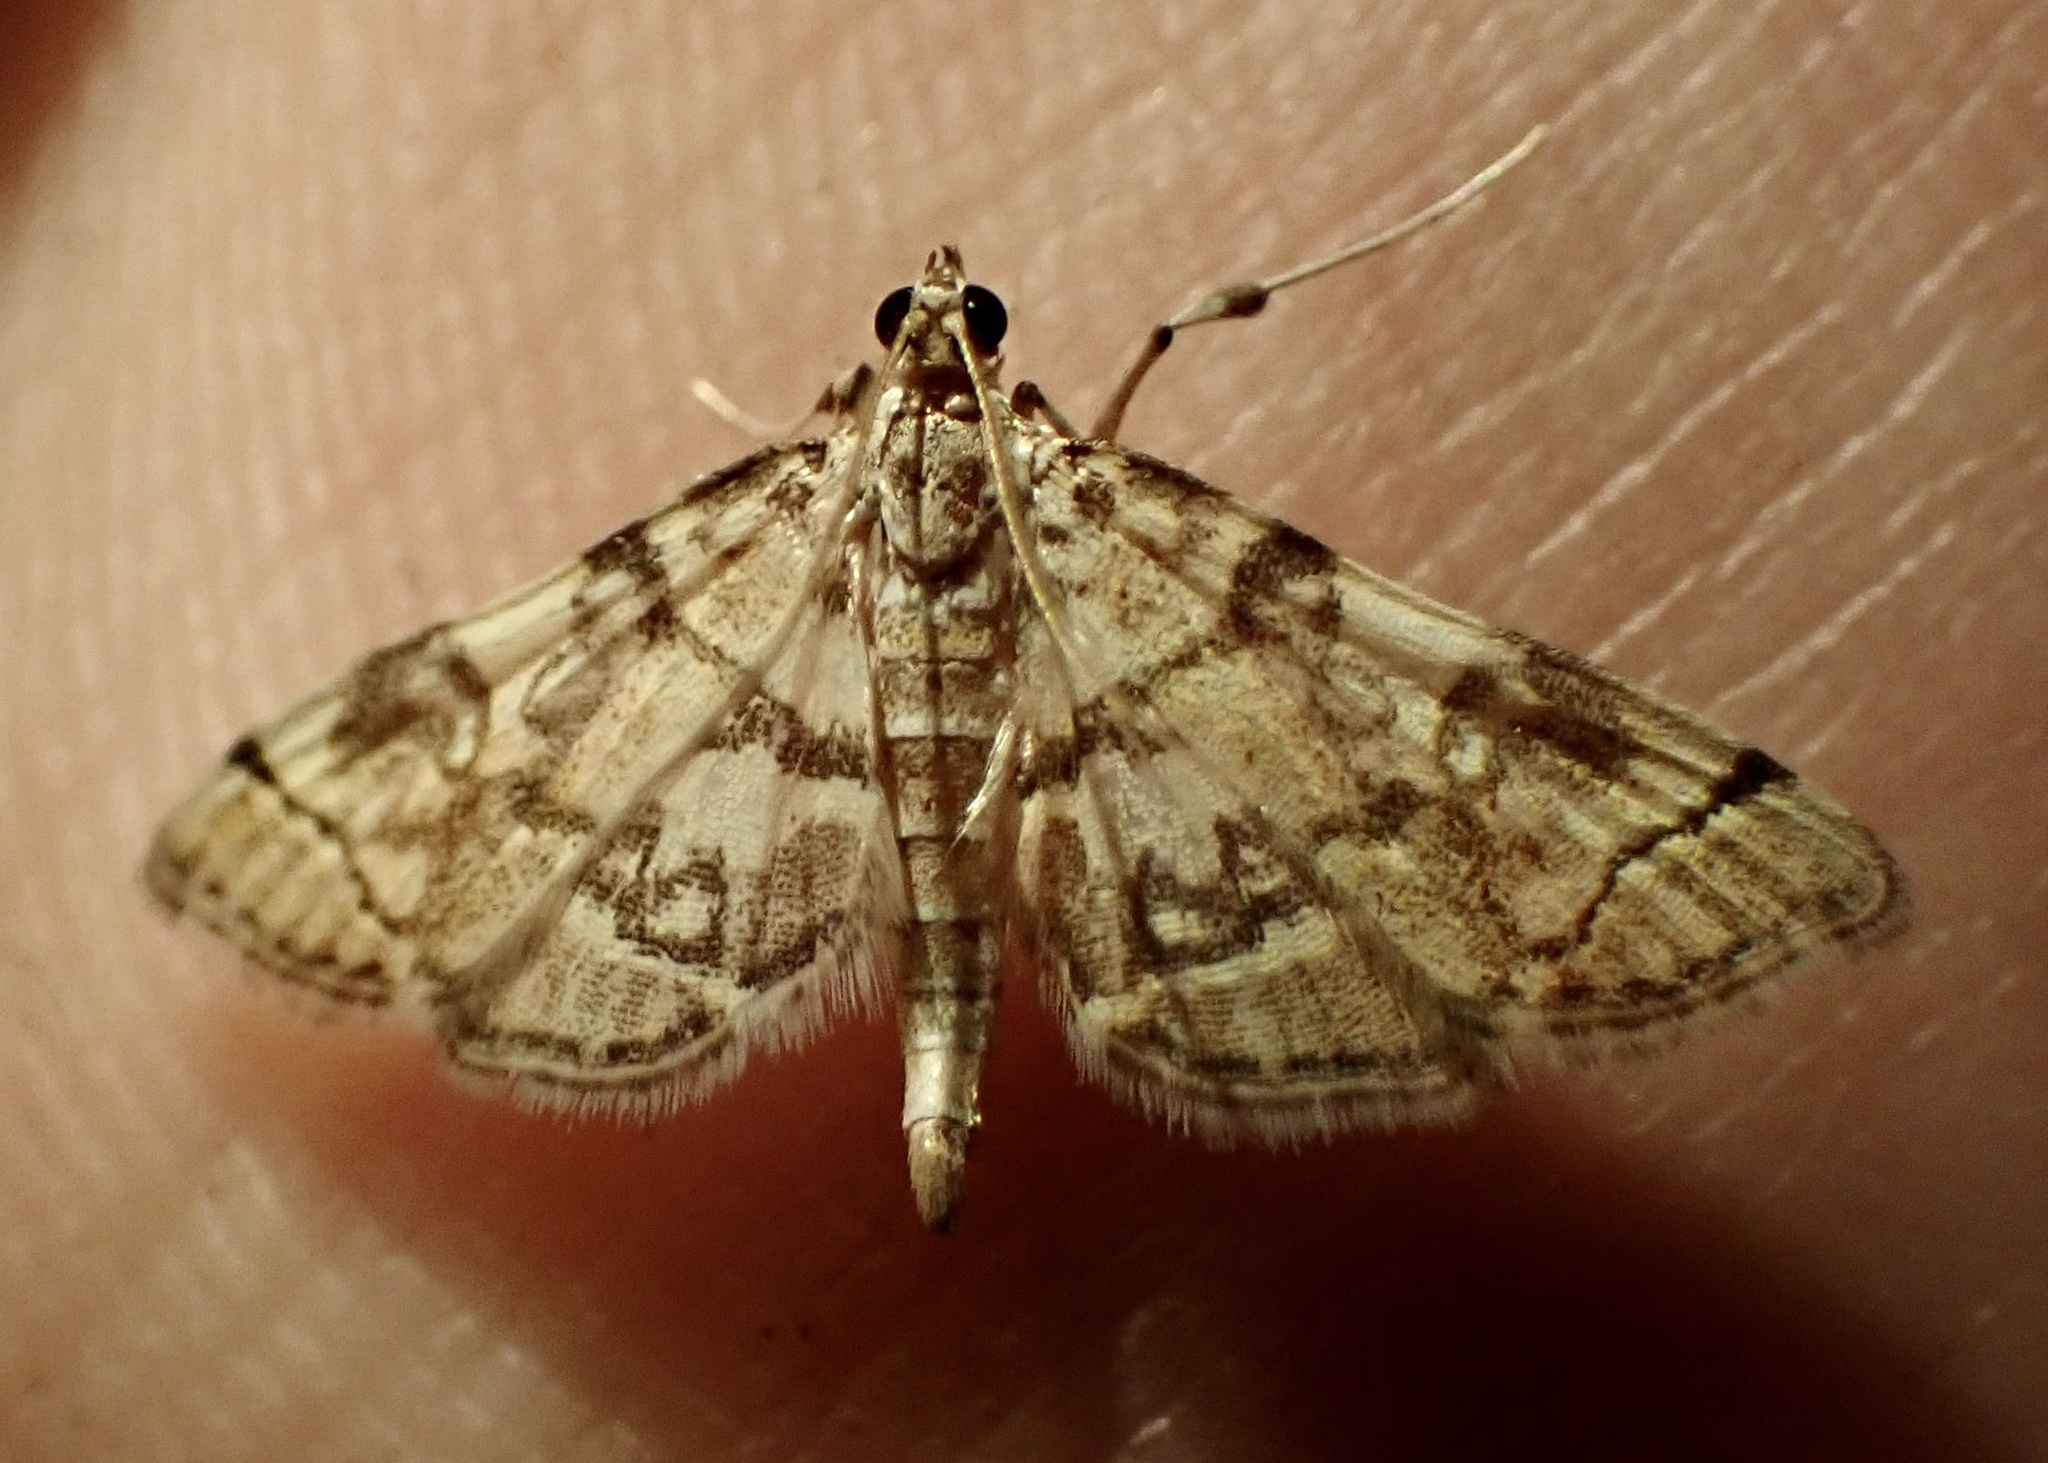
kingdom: Animalia
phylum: Arthropoda
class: Insecta
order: Lepidoptera
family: Crambidae
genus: Apogeshna
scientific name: Apogeshna stenialis
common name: Checkered apogeshna moth
